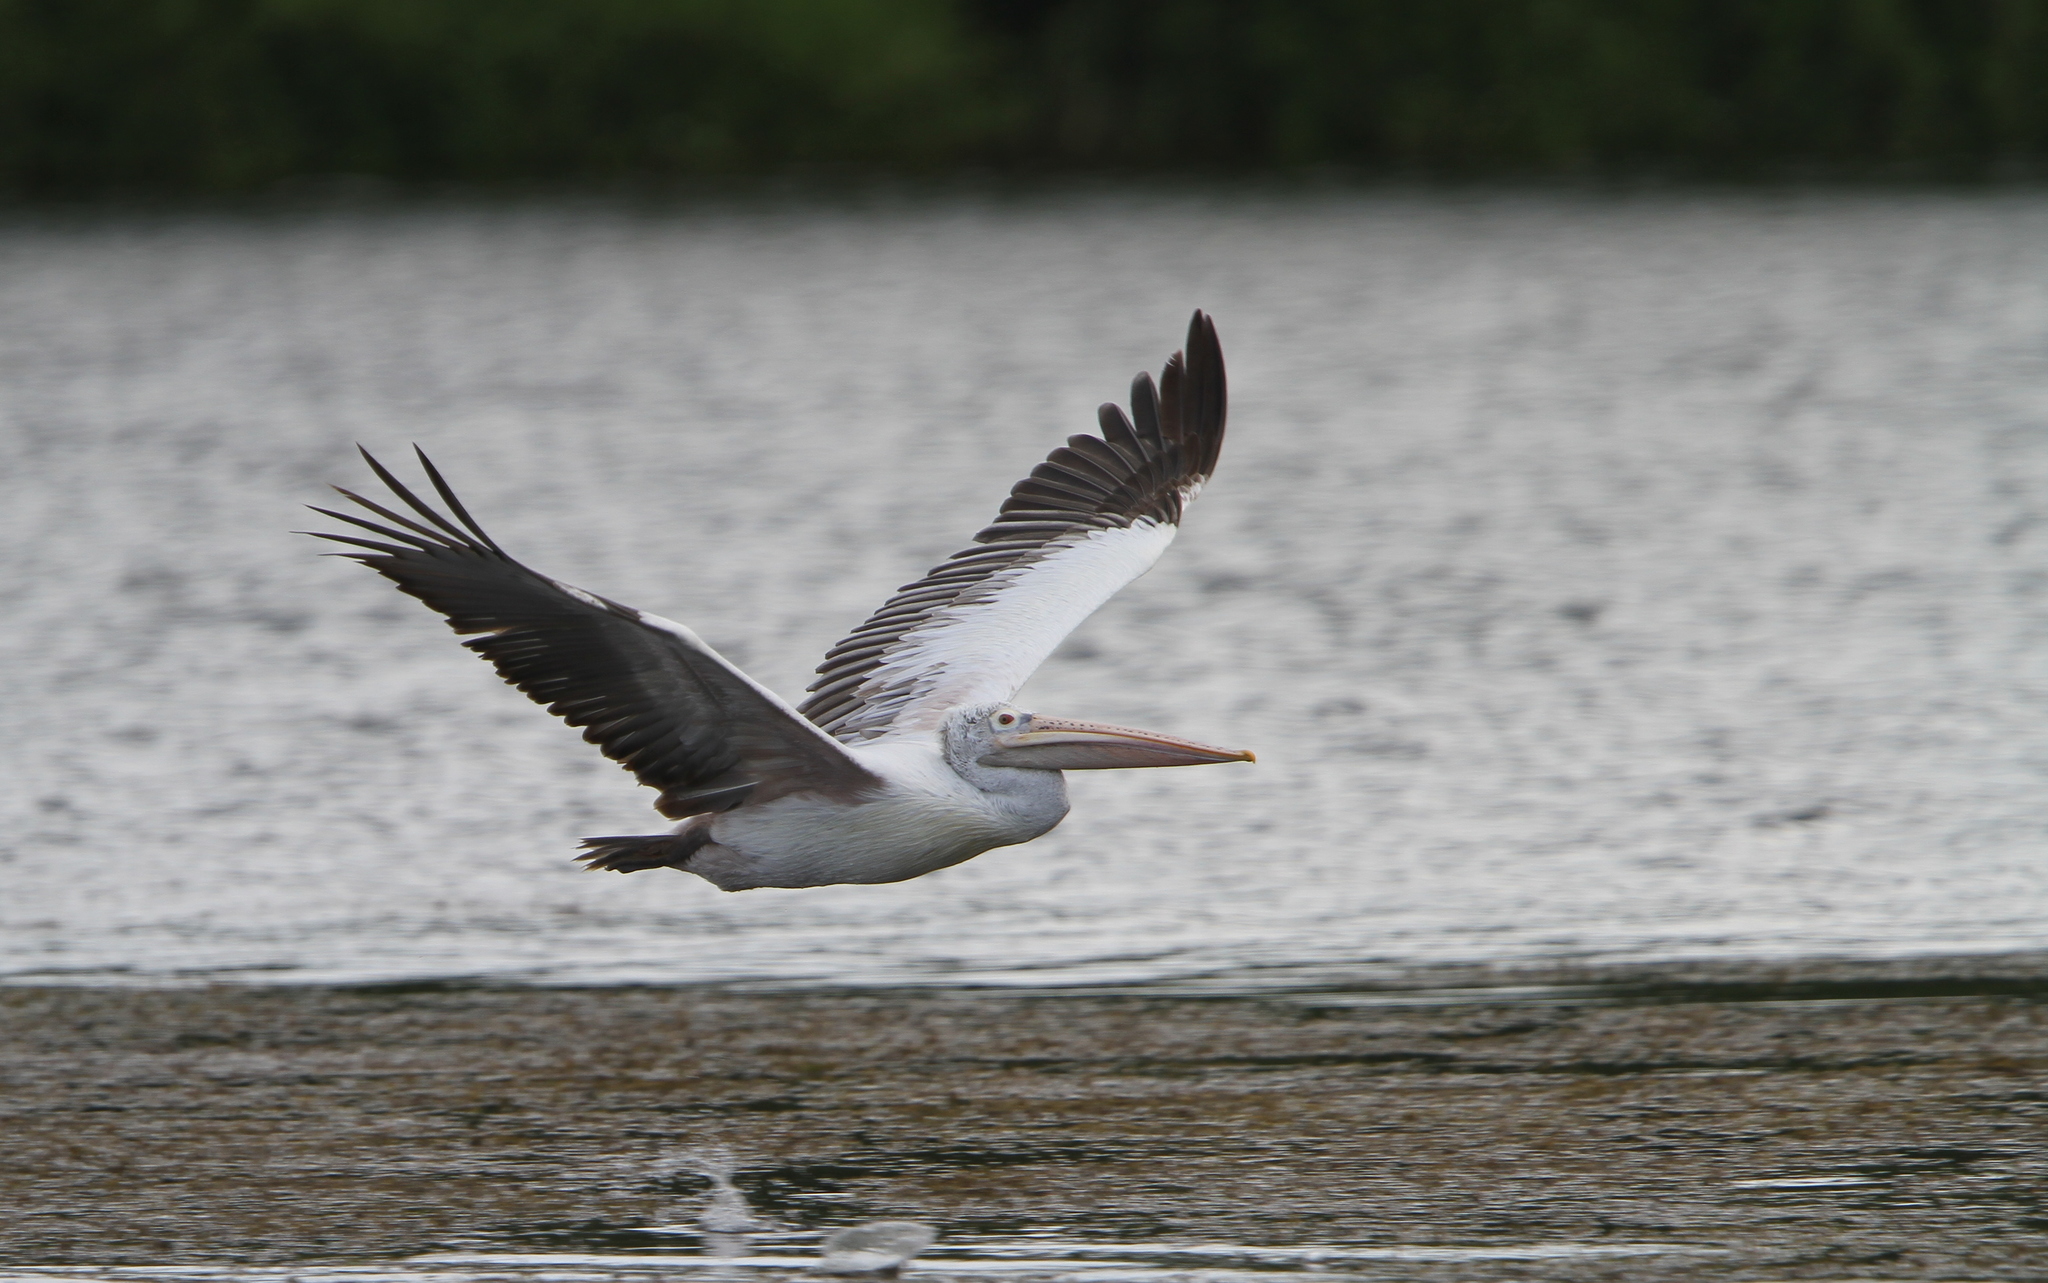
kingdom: Animalia
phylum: Chordata
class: Aves
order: Pelecaniformes
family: Pelecanidae
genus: Pelecanus
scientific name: Pelecanus philippensis
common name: Spot-billed pelican
